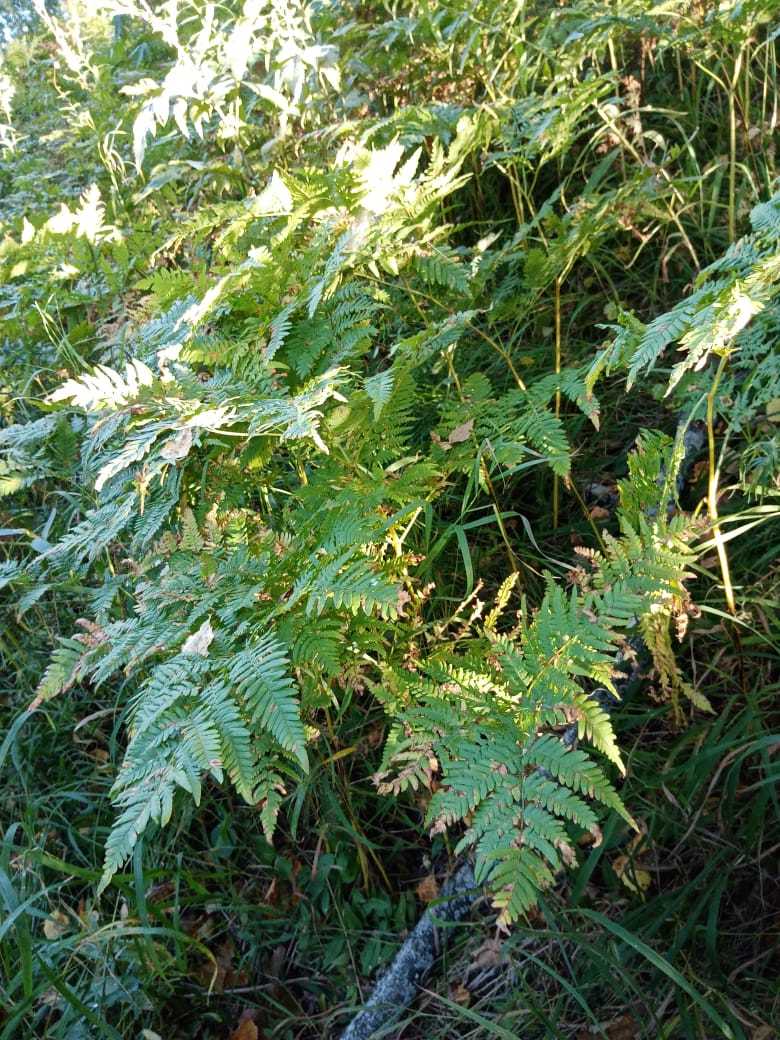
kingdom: Plantae
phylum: Tracheophyta
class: Polypodiopsida
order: Polypodiales
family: Dennstaedtiaceae
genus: Pteridium
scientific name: Pteridium aquilinum
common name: Bracken
